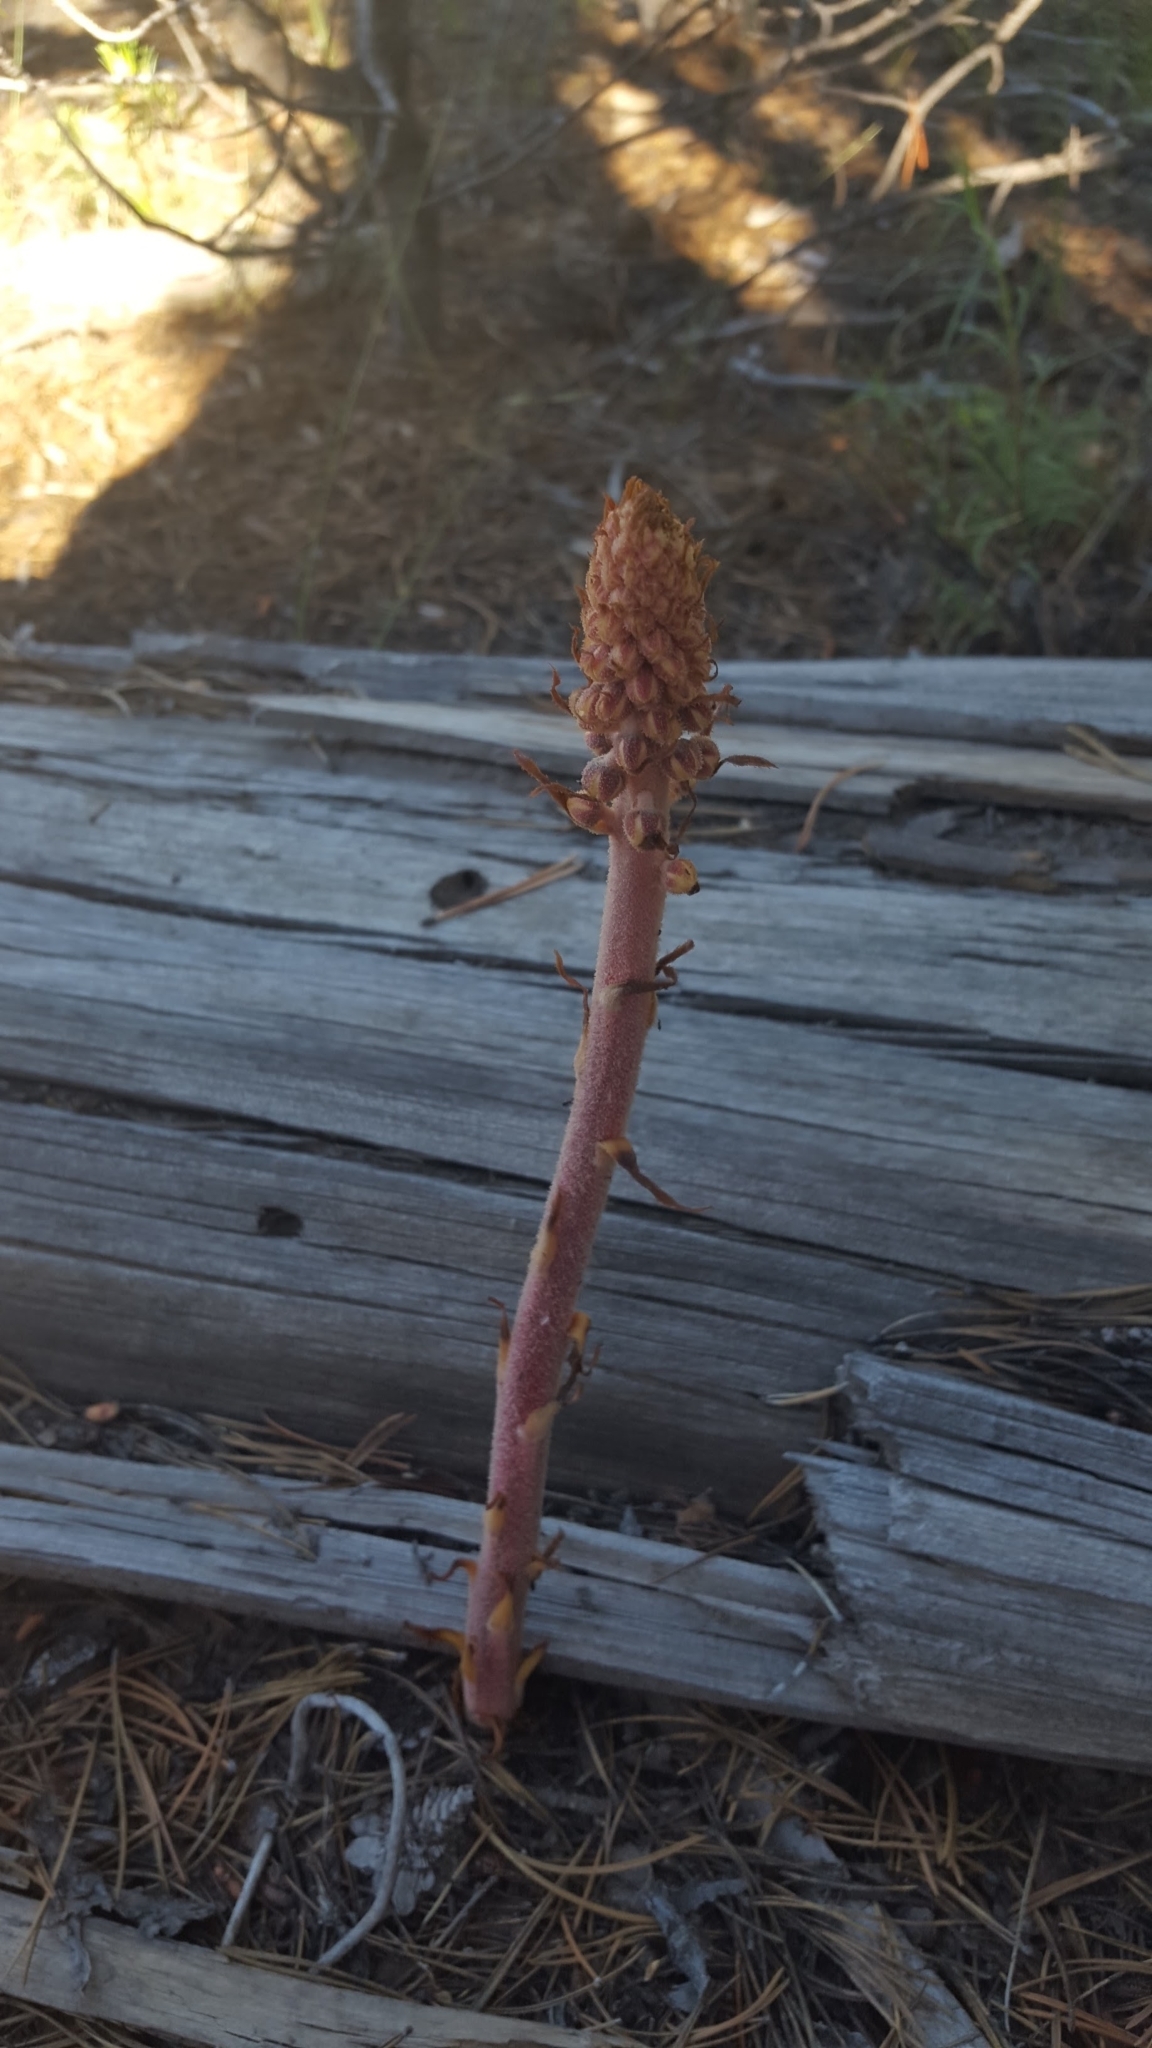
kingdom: Plantae
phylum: Tracheophyta
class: Magnoliopsida
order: Ericales
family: Ericaceae
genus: Pterospora
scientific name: Pterospora andromedea
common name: Giant bird's-nest
